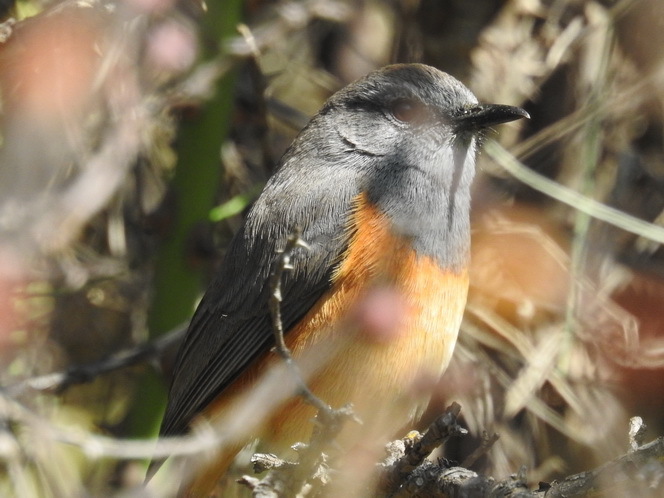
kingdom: Animalia
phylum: Chordata
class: Aves
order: Passeriformes
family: Muscicapidae
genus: Monticola
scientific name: Monticola rufocinereus
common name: Little rock thrush
